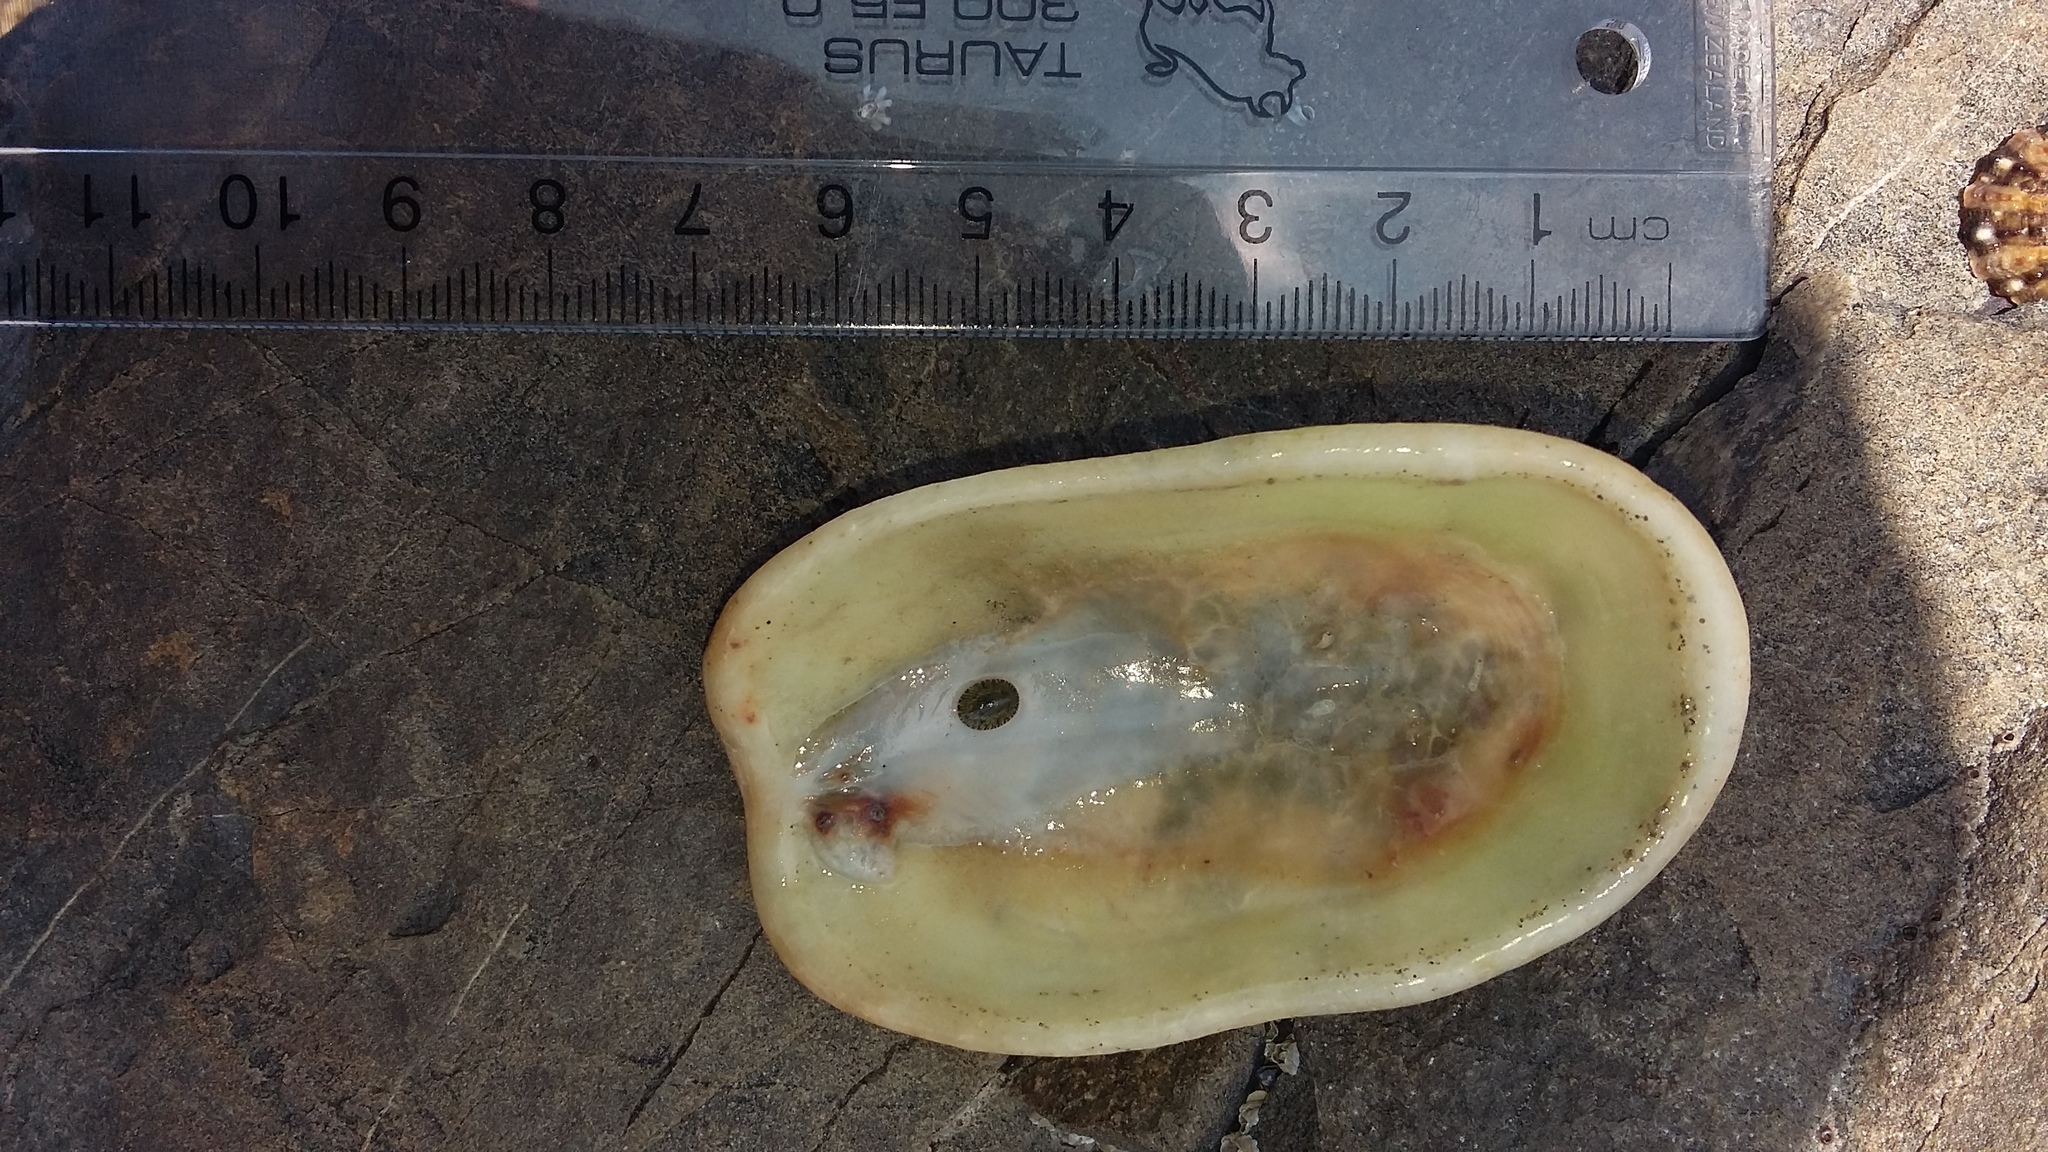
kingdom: Animalia
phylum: Mollusca
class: Gastropoda
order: Lepetellida
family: Fissurellidae
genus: Scutus
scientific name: Scutus breviculus
